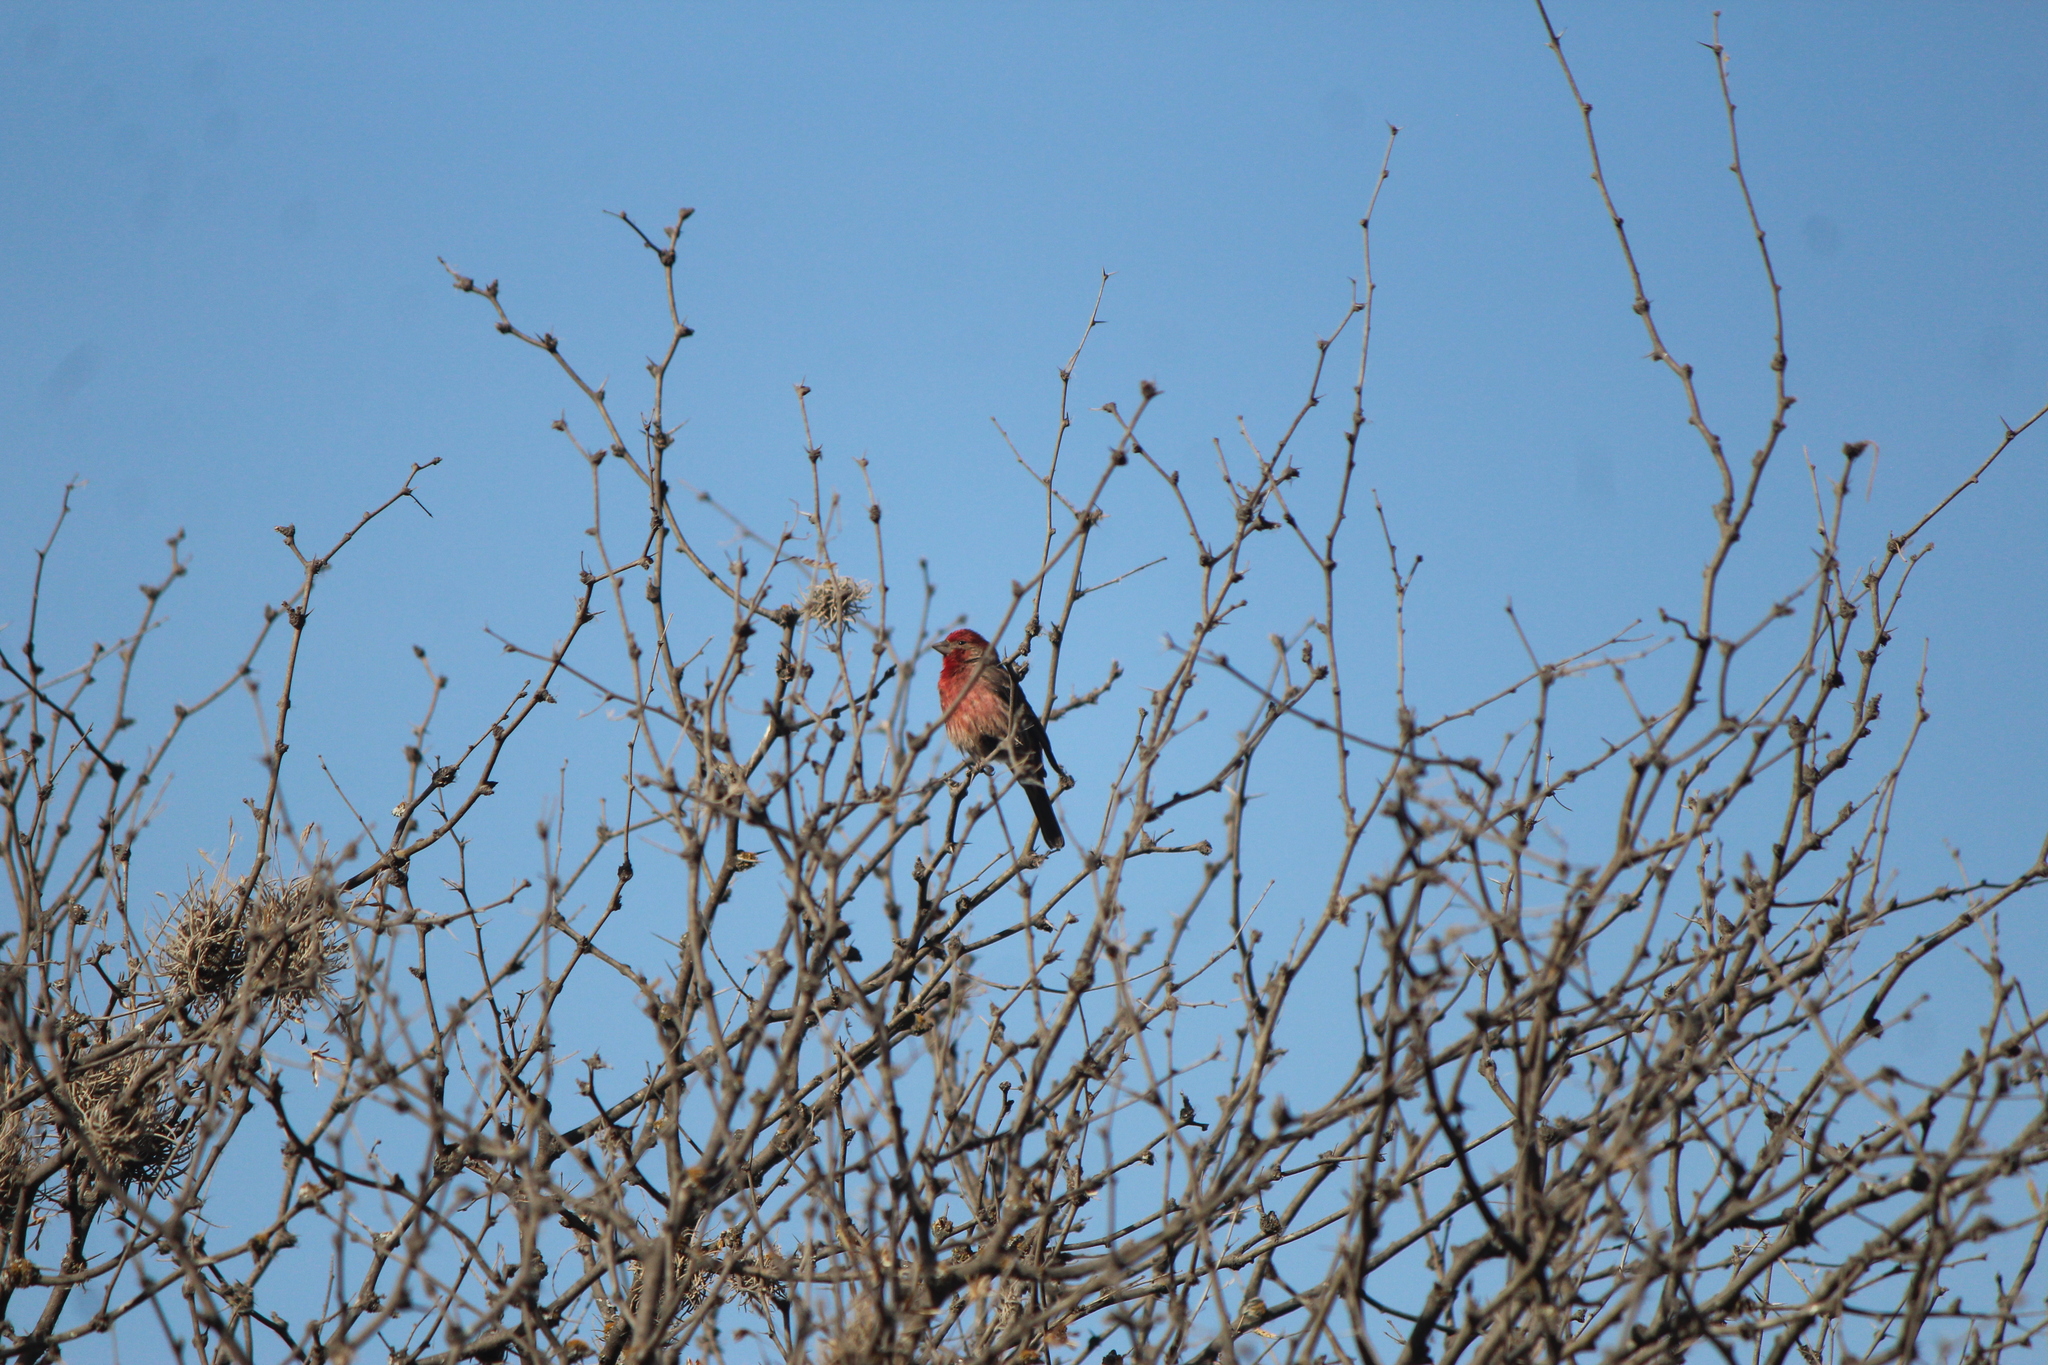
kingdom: Animalia
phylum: Chordata
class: Aves
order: Passeriformes
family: Fringillidae
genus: Haemorhous
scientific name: Haemorhous mexicanus
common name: House finch
